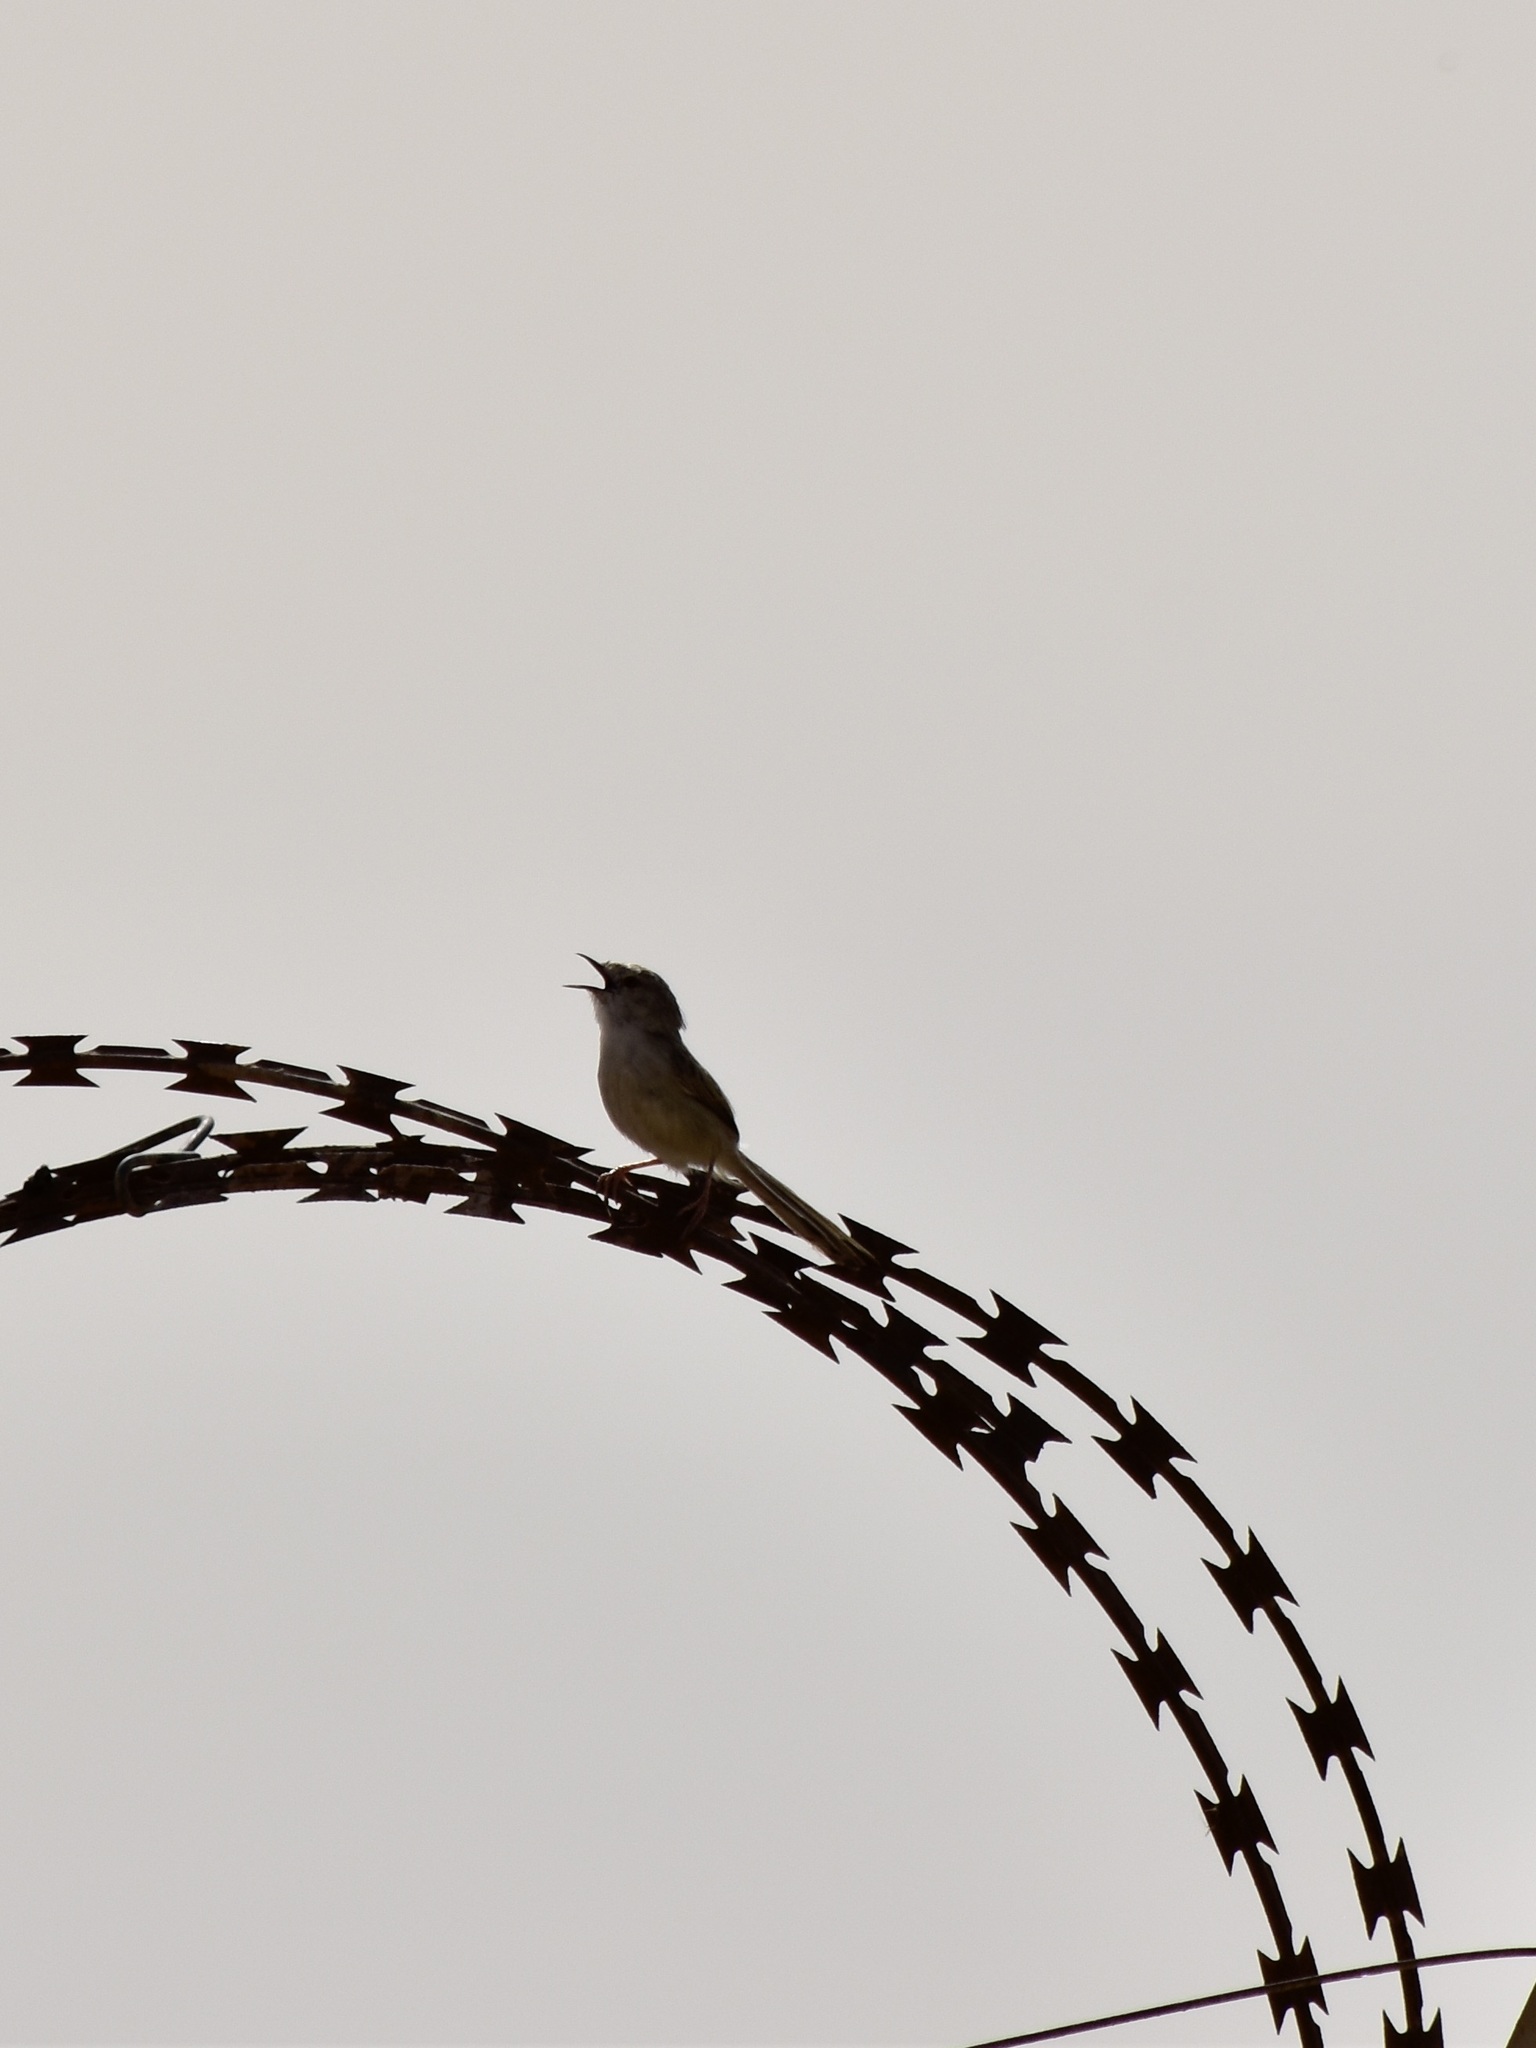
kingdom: Animalia
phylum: Chordata
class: Aves
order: Passeriformes
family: Cisticolidae
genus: Prinia
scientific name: Prinia lepida
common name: Delicate prinia
